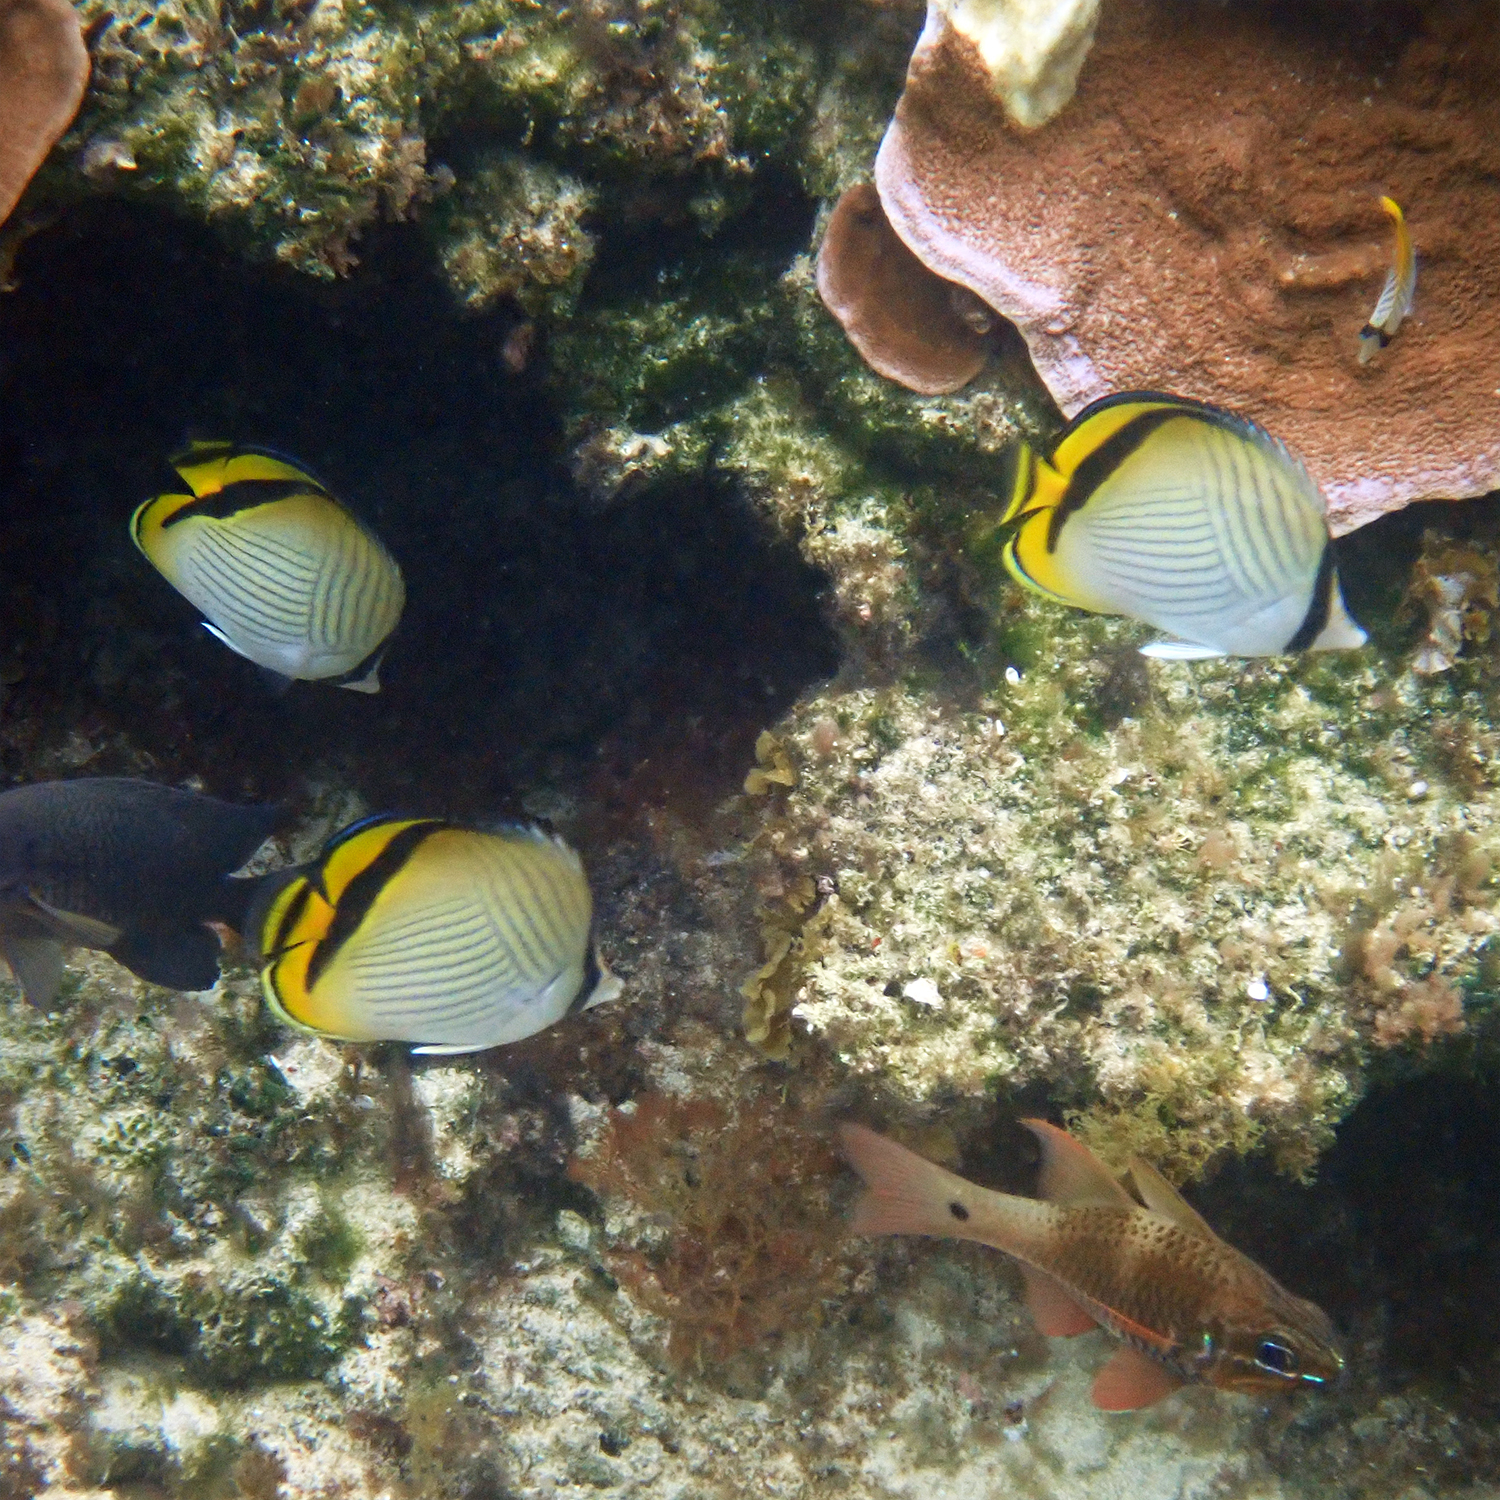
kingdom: Animalia
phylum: Chordata
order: Perciformes
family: Chaetodontidae
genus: Chaetodon
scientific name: Chaetodon vagabundus
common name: Vagabond butterflyfish
